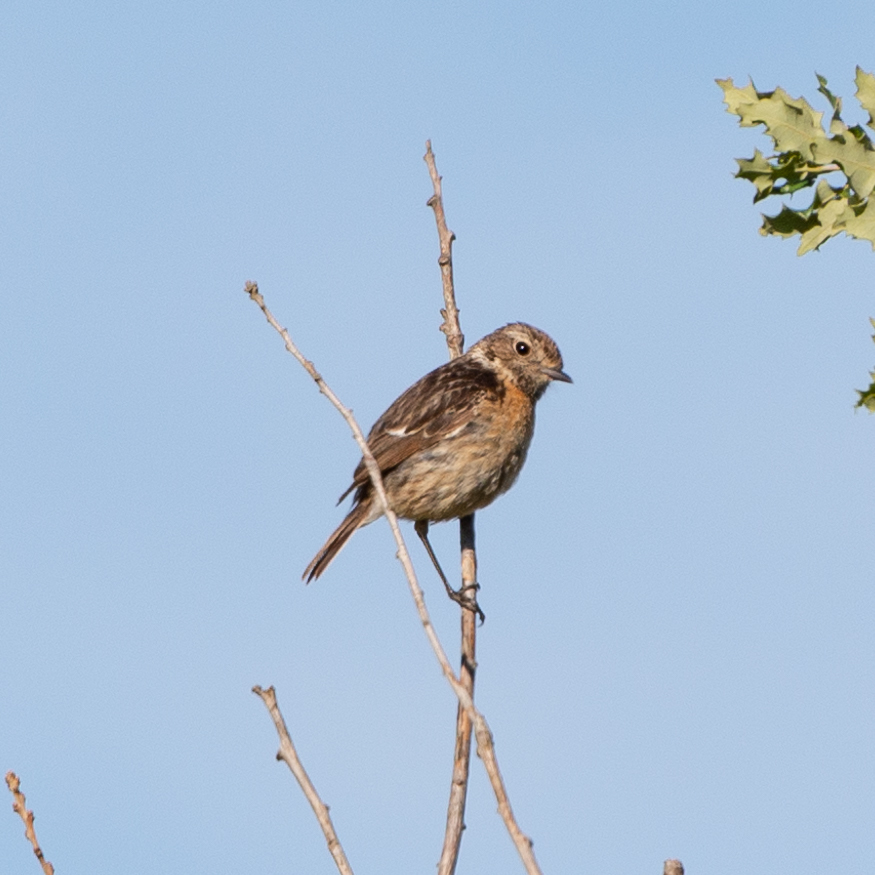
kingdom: Animalia
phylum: Chordata
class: Aves
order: Passeriformes
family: Muscicapidae
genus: Saxicola
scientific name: Saxicola rubicola
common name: European stonechat
